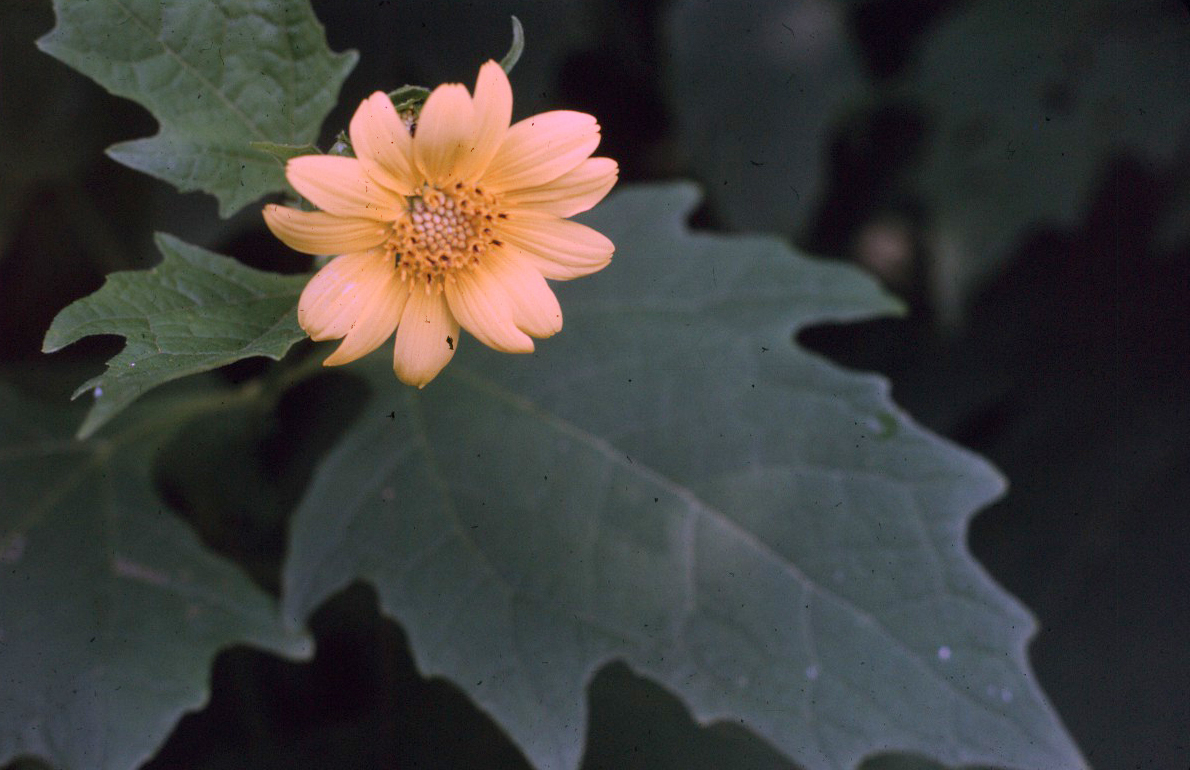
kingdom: Plantae
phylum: Tracheophyta
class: Magnoliopsida
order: Asterales
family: Asteraceae
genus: Smallanthus
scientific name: Smallanthus uvedalia
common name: Bear's-foot
